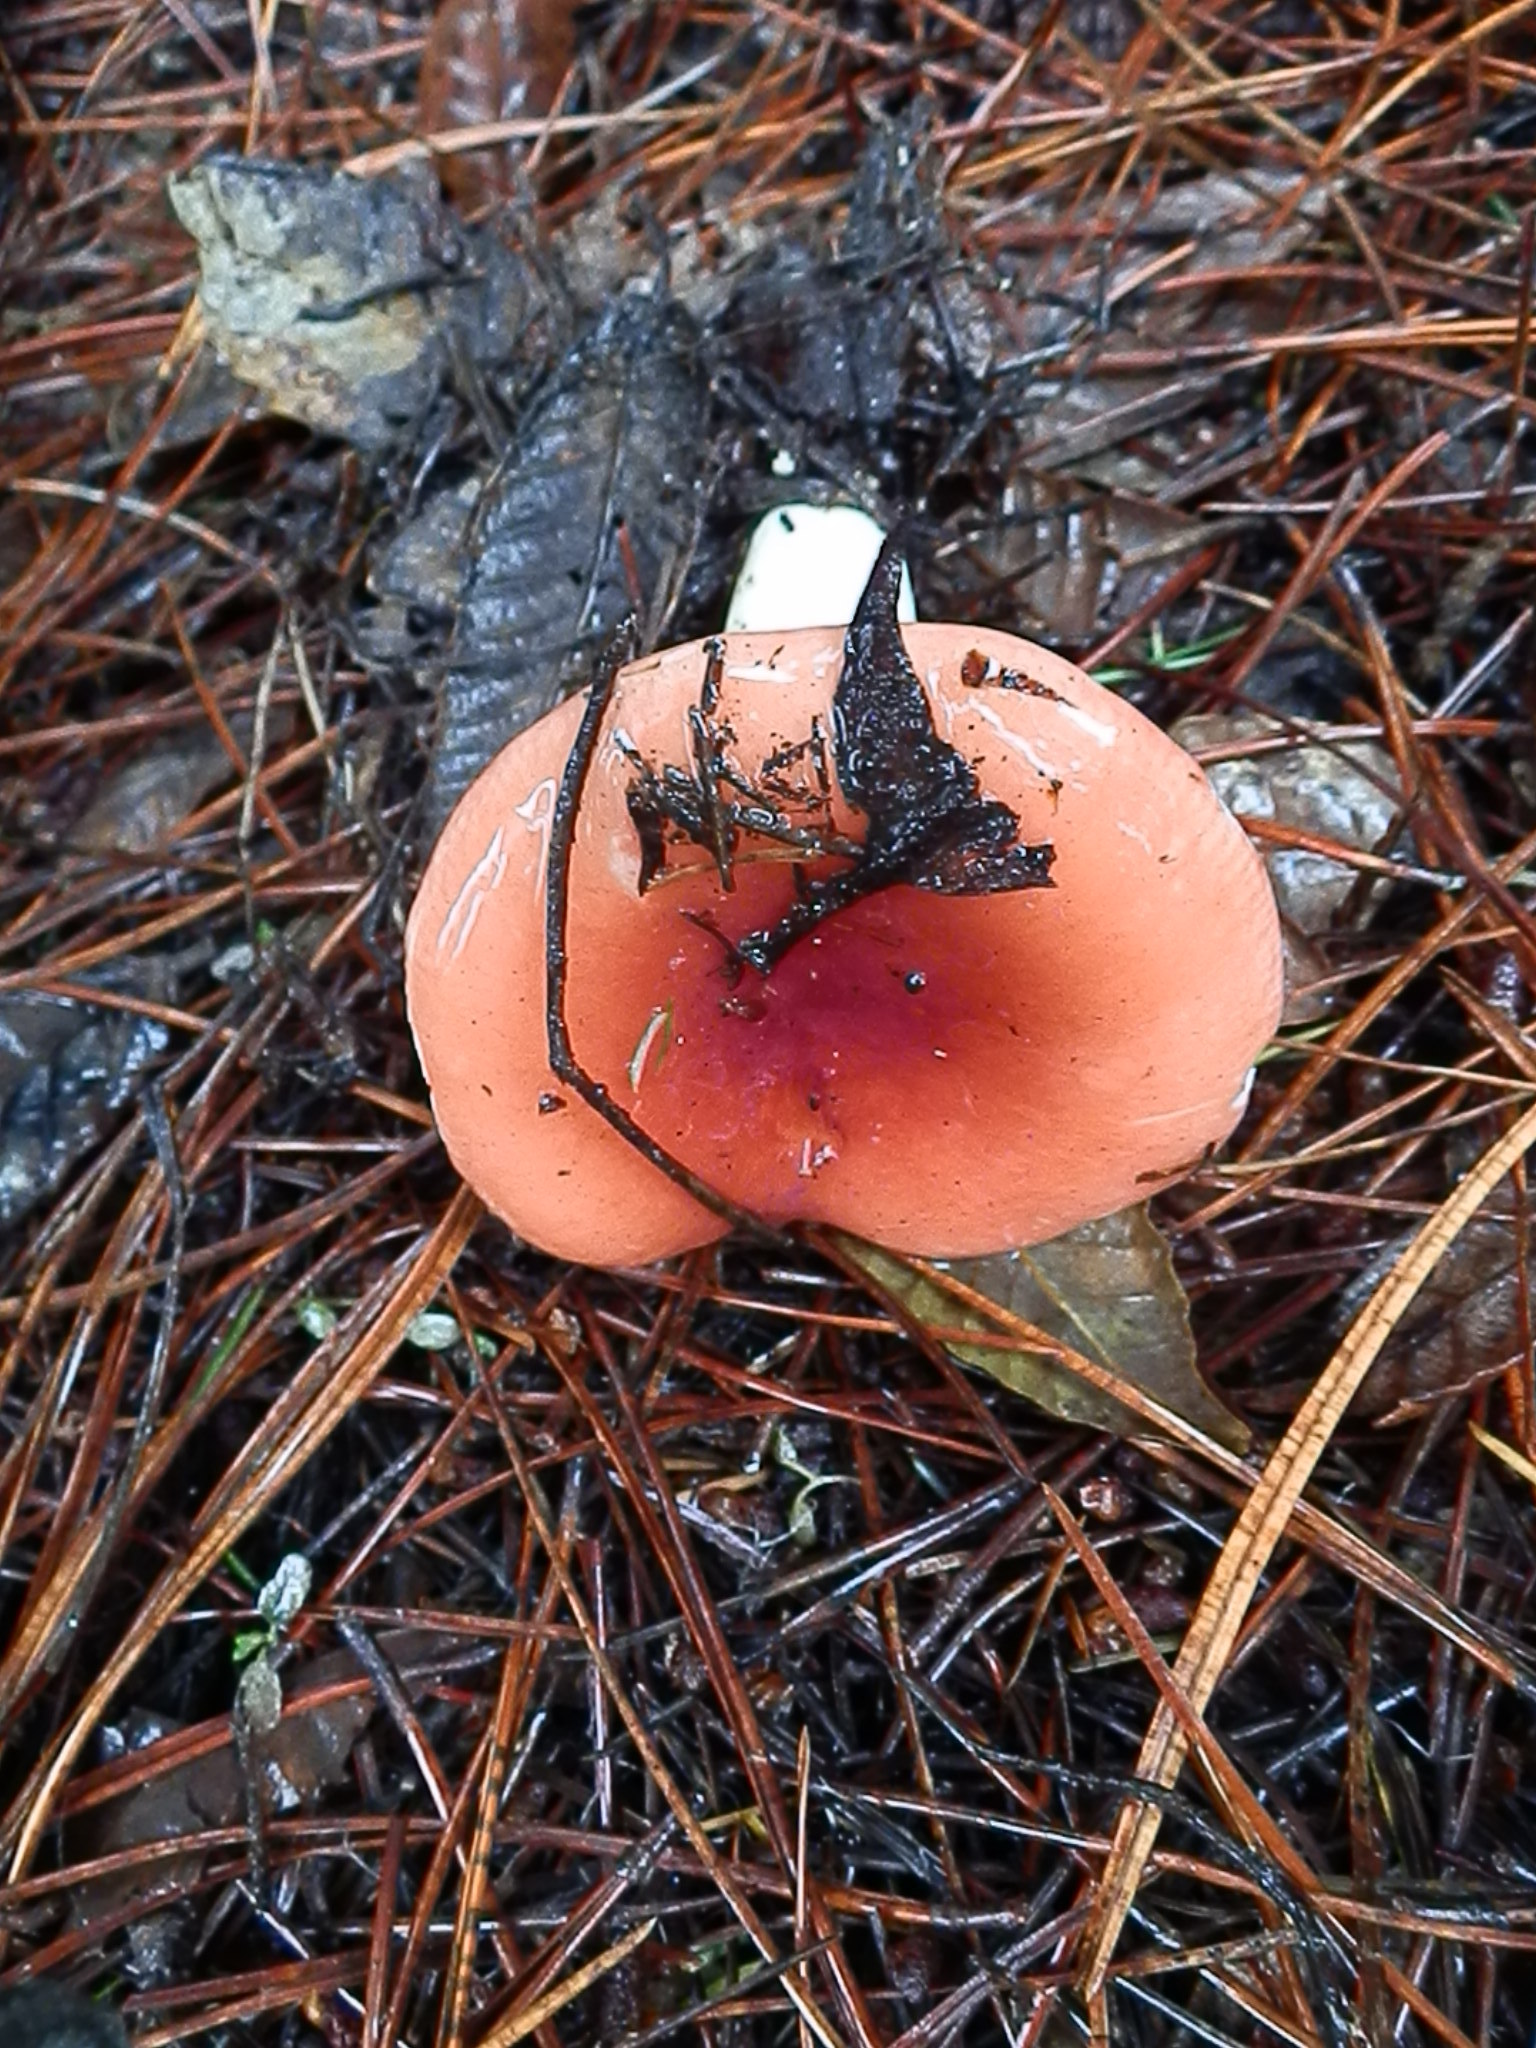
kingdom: Fungi
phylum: Basidiomycota
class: Agaricomycetes
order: Russulales
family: Russulaceae
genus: Russula
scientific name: Russula cremoricolor
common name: Winter russula
